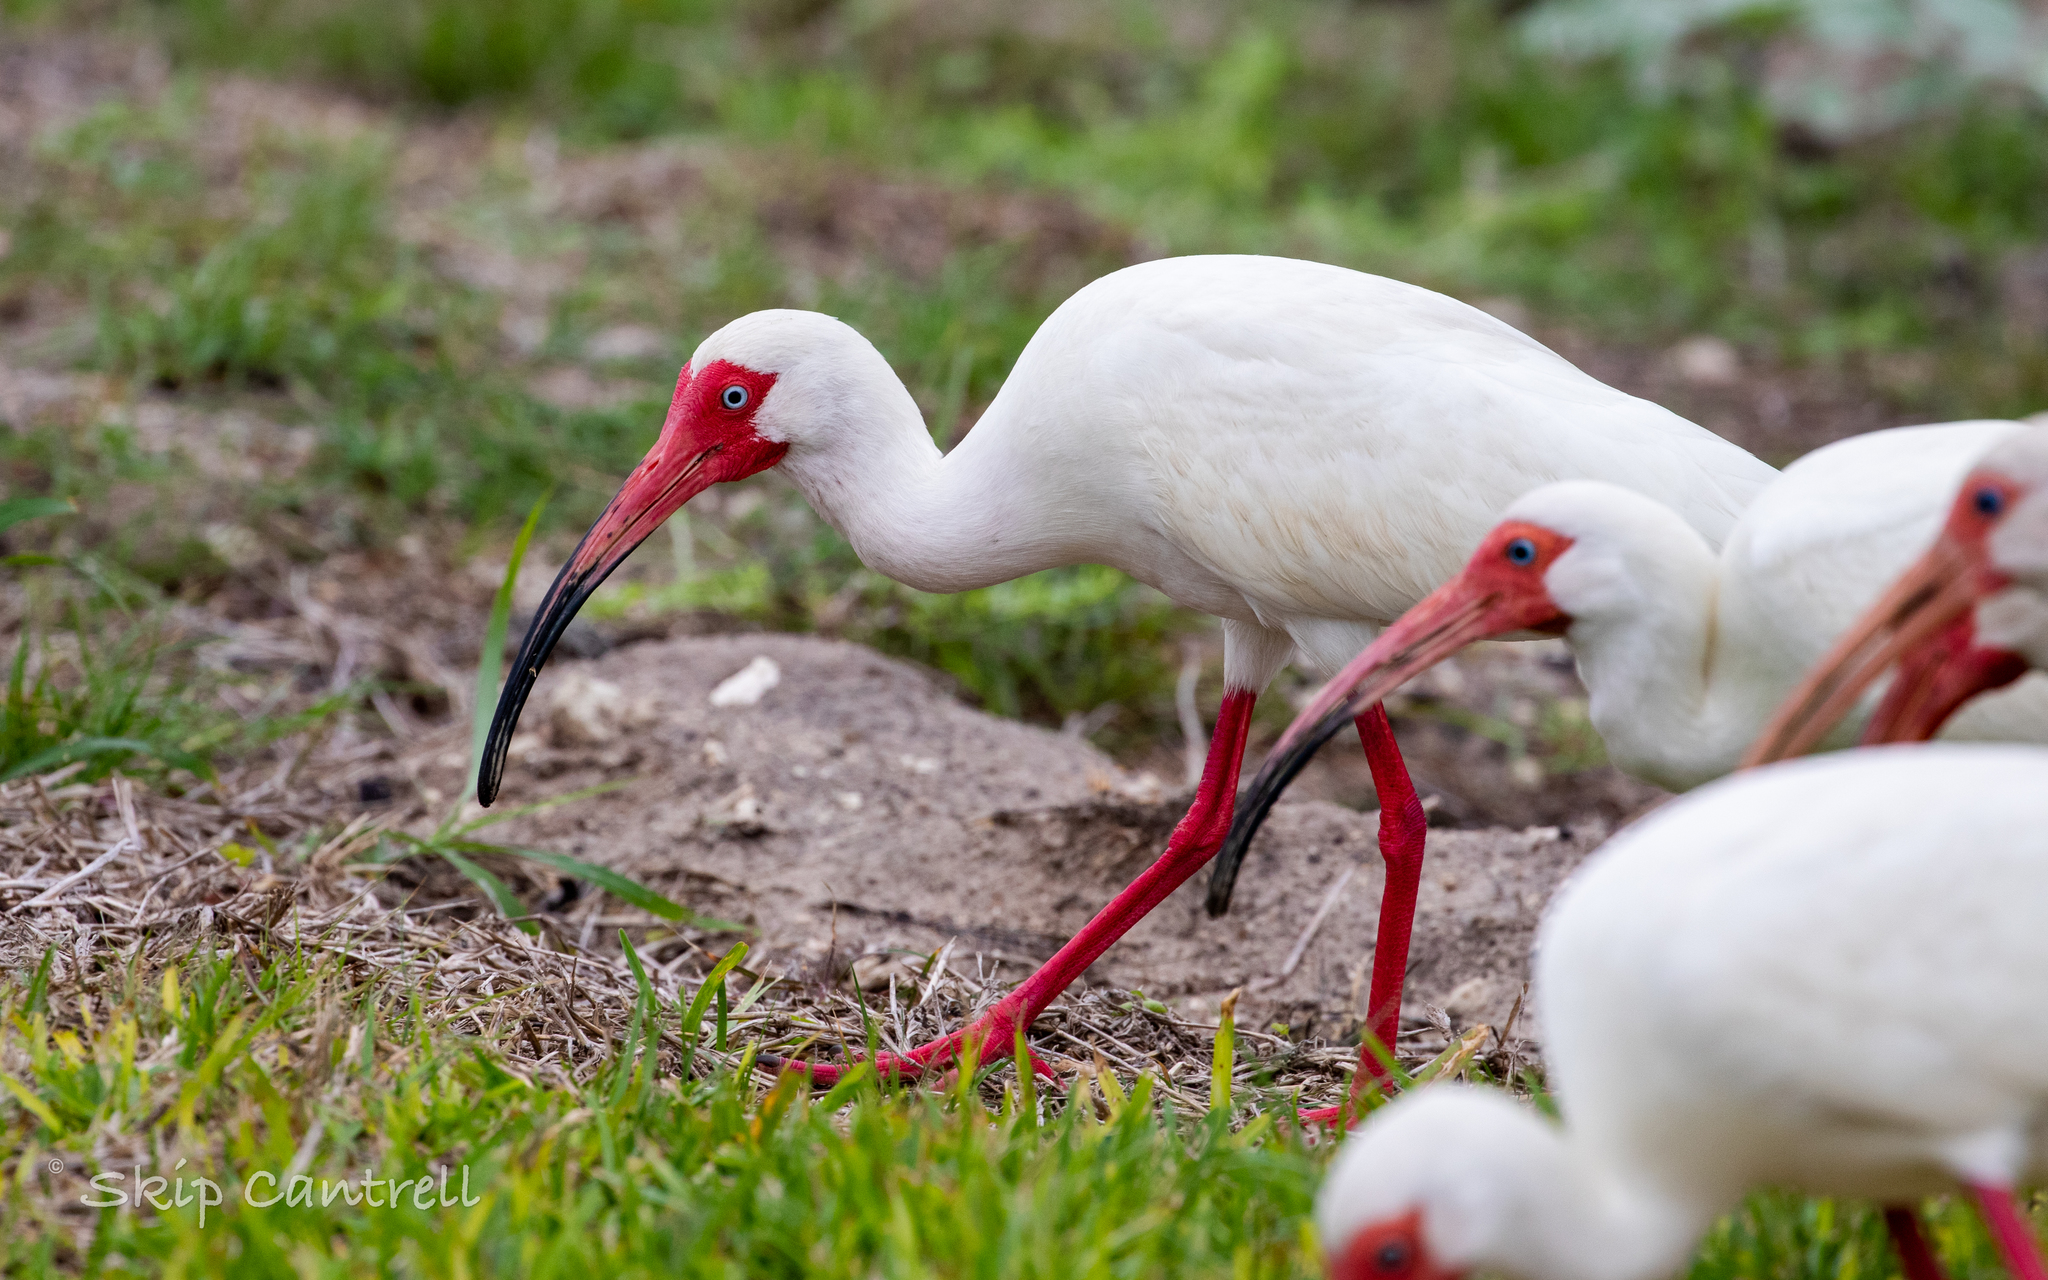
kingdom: Animalia
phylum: Chordata
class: Aves
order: Pelecaniformes
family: Threskiornithidae
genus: Eudocimus
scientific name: Eudocimus albus
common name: White ibis
